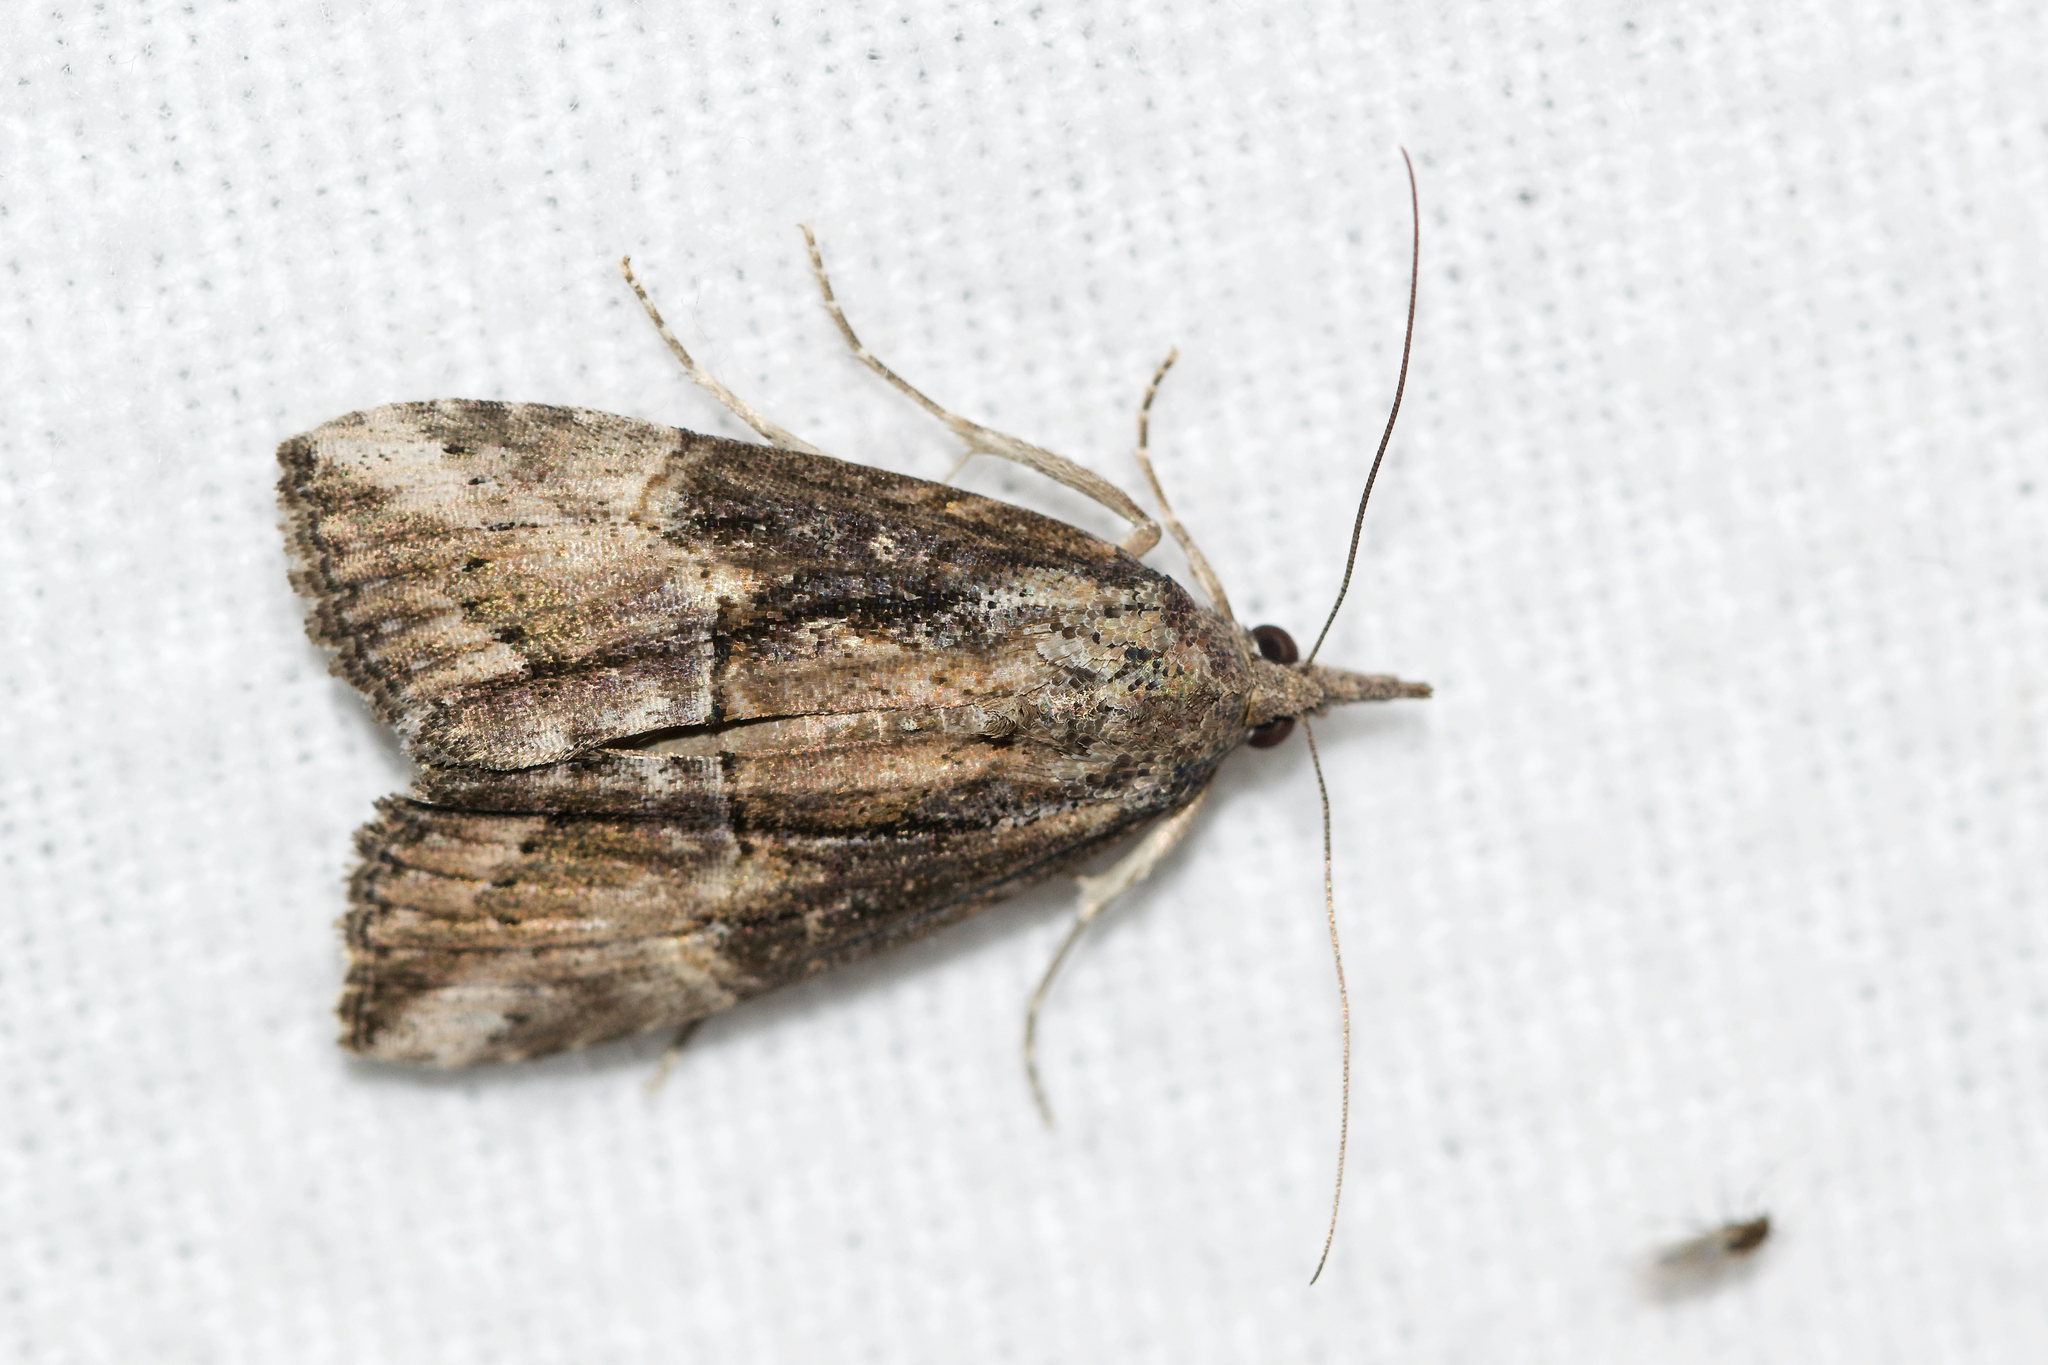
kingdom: Animalia
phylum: Arthropoda
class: Insecta
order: Lepidoptera
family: Erebidae
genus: Hypena
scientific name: Hypena scabra
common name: Green cloverworm
